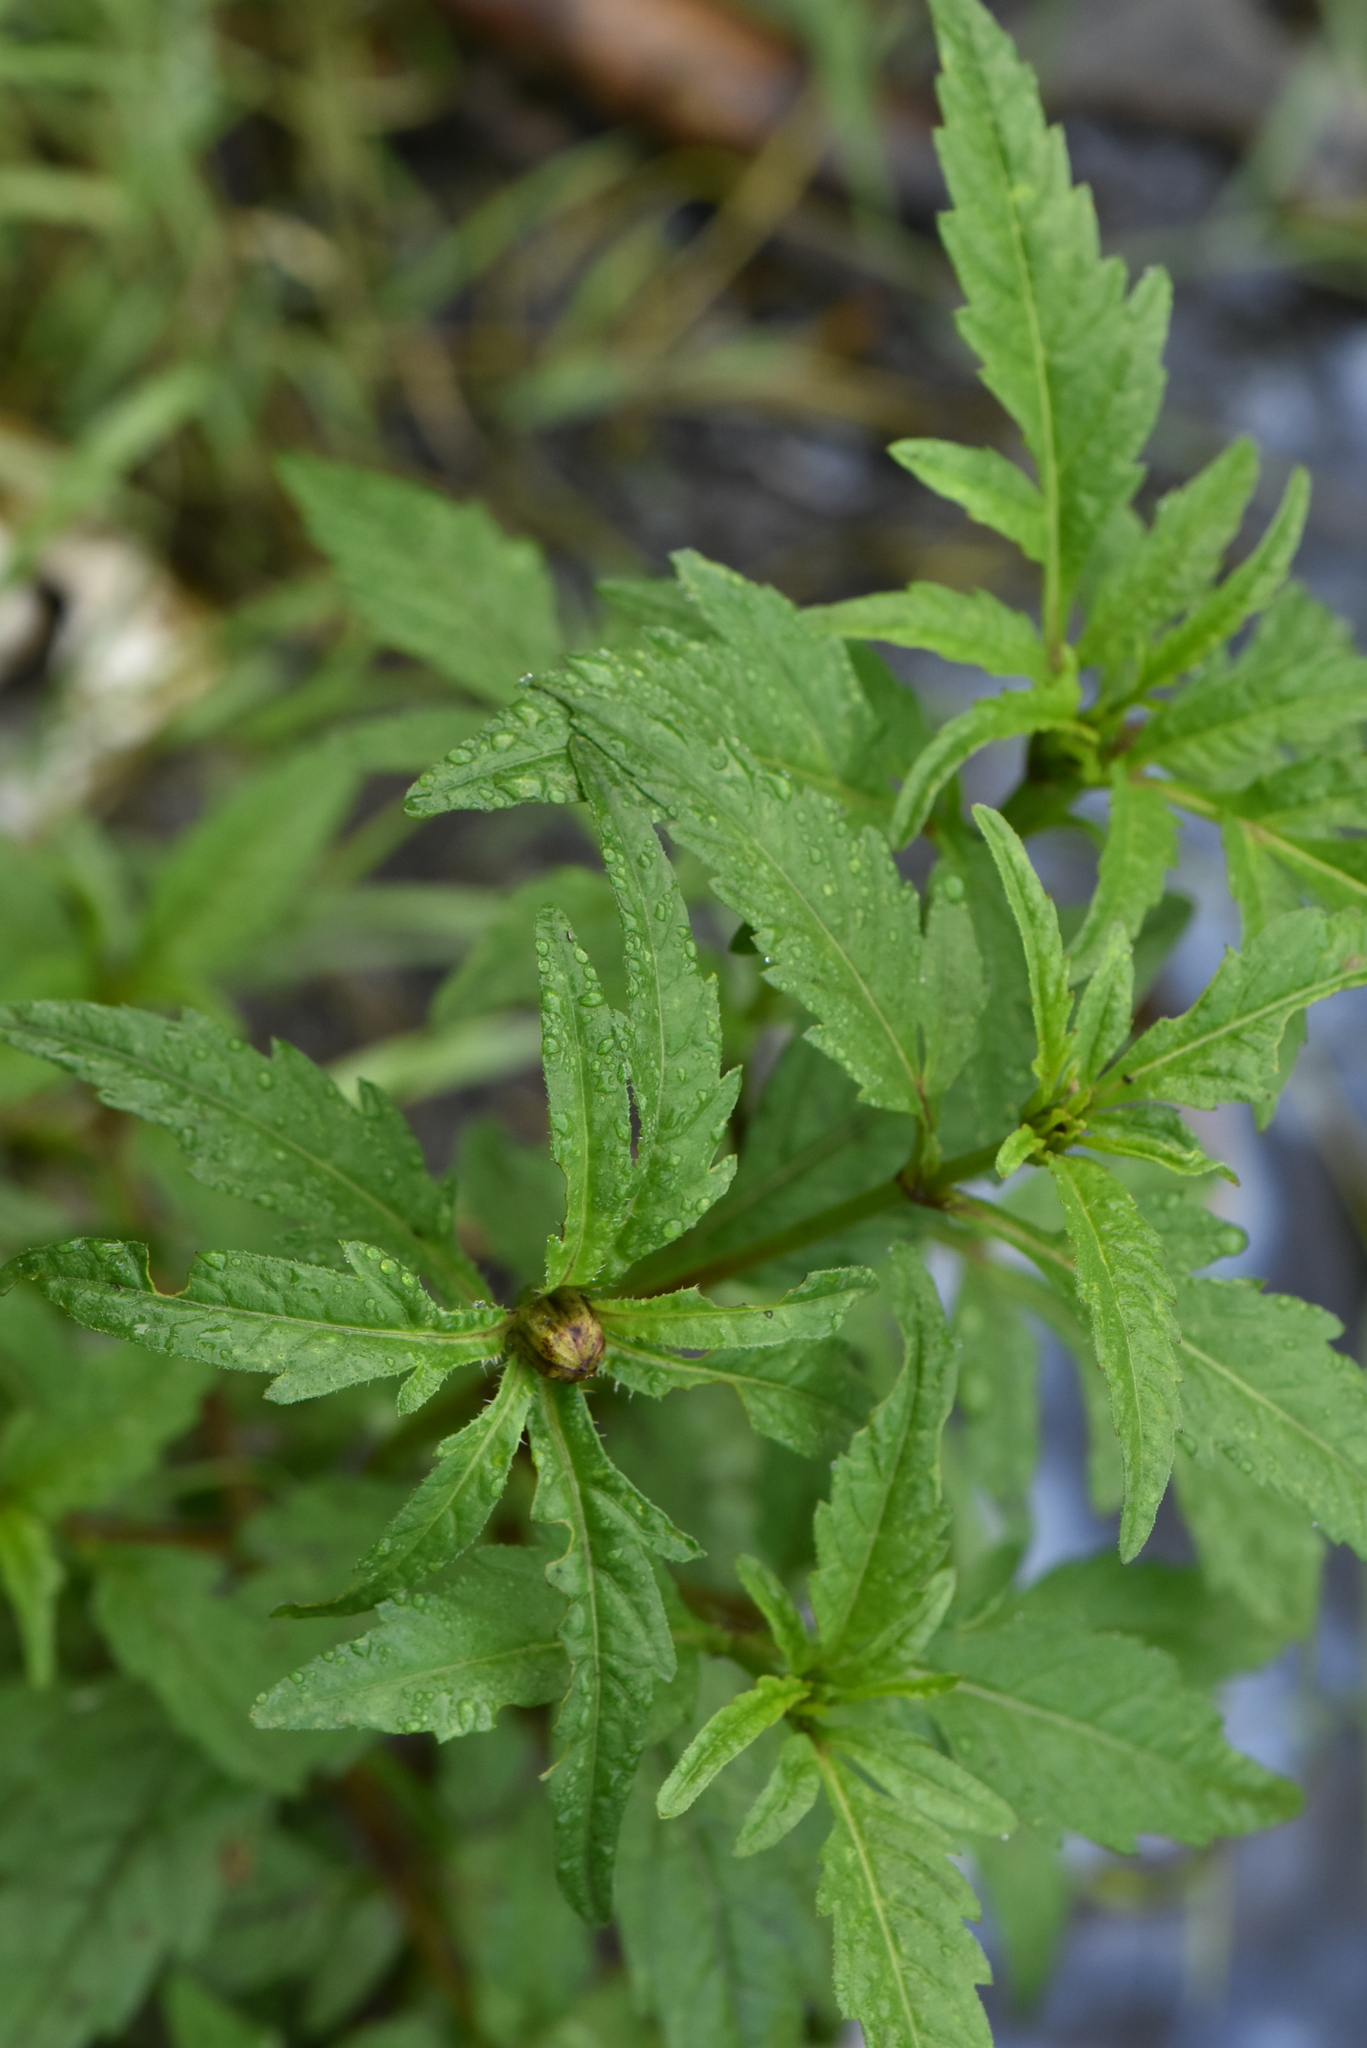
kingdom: Plantae
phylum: Tracheophyta
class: Magnoliopsida
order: Asterales
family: Asteraceae
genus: Bidens
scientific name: Bidens tripartita
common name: Trifid bur-marigold
